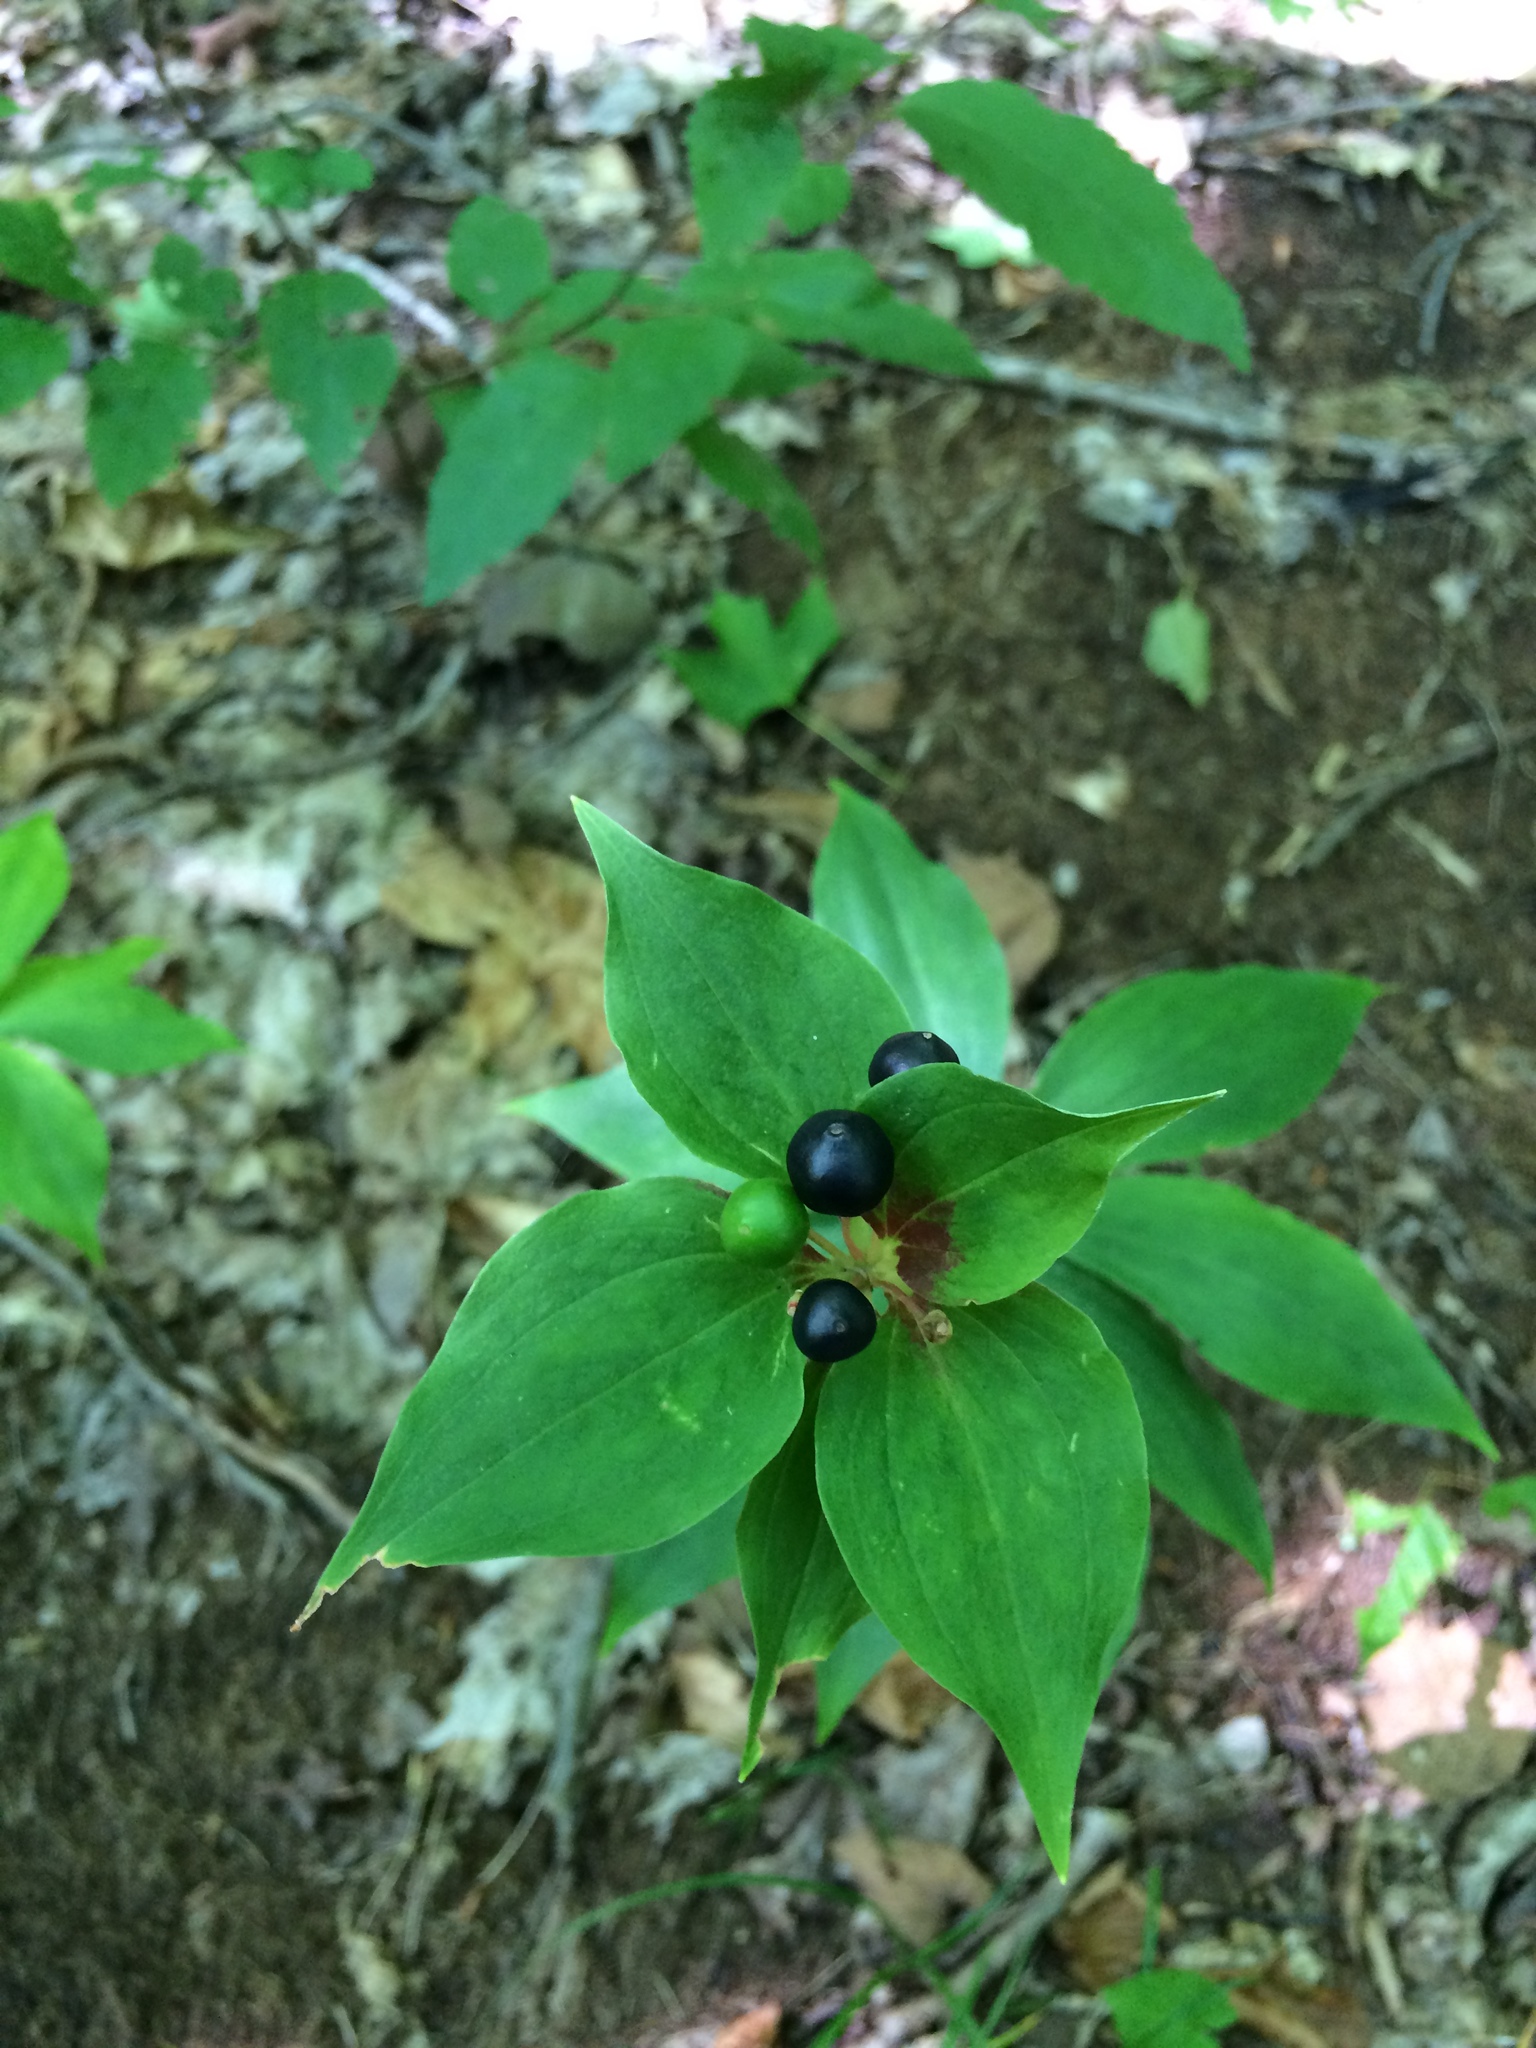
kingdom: Plantae
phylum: Tracheophyta
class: Liliopsida
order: Liliales
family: Liliaceae
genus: Medeola
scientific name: Medeola virginiana
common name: Indian cucumber-root
